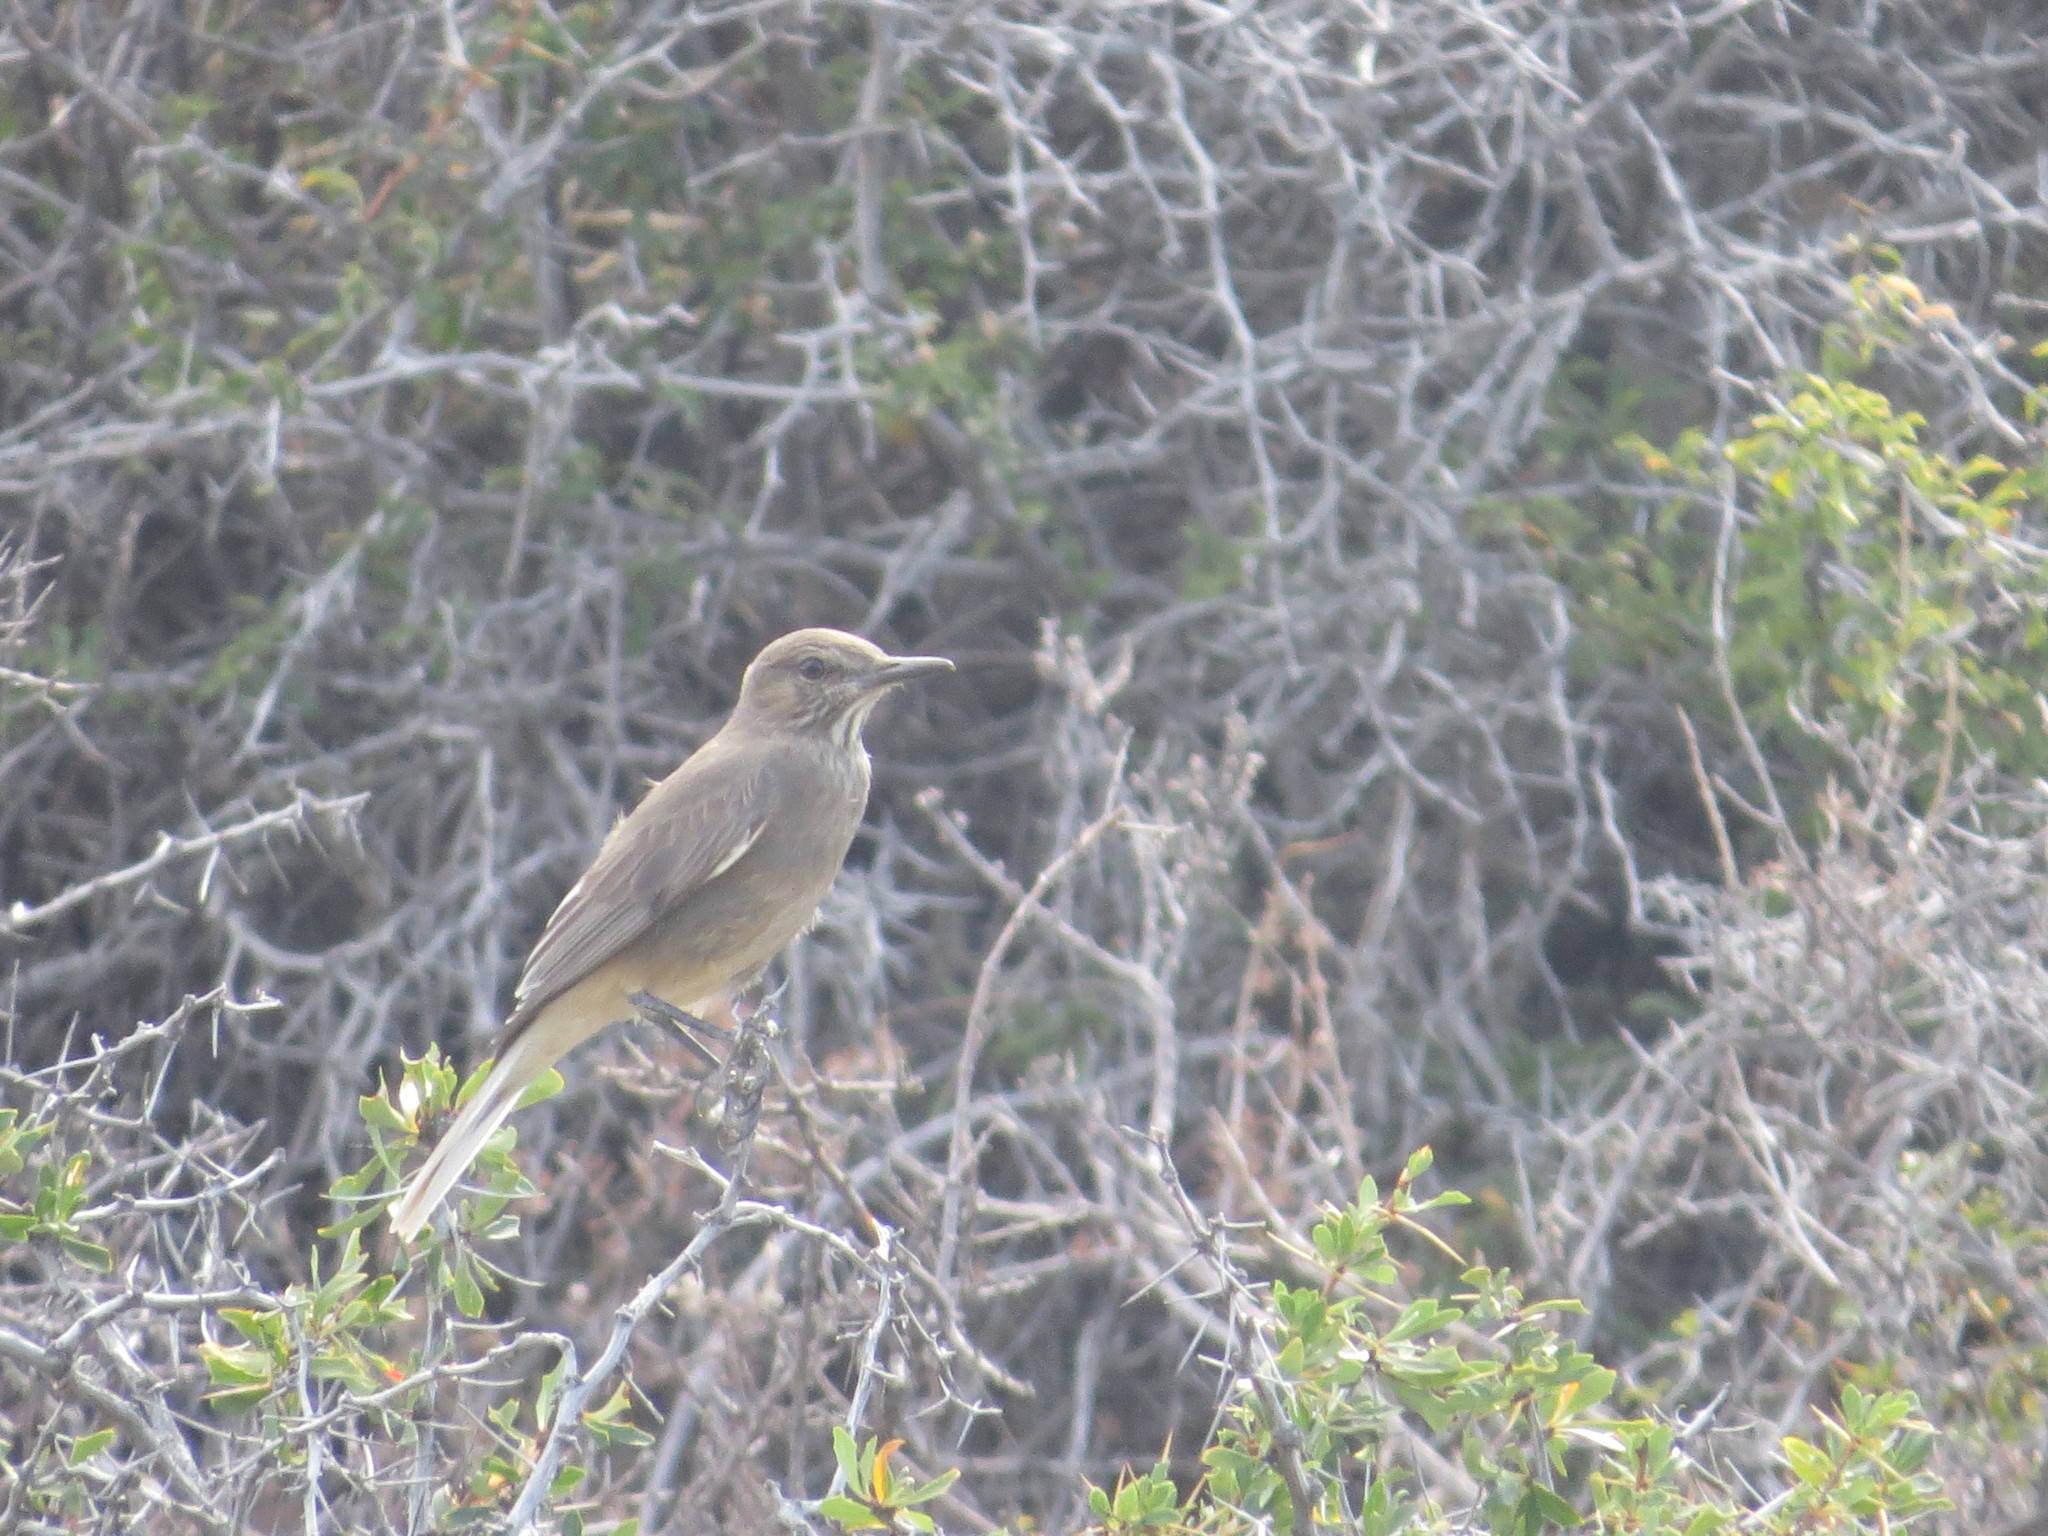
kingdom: Animalia
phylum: Chordata
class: Aves
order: Passeriformes
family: Tyrannidae
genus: Agriornis
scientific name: Agriornis montanus
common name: Black-billed shrike-tyrant
